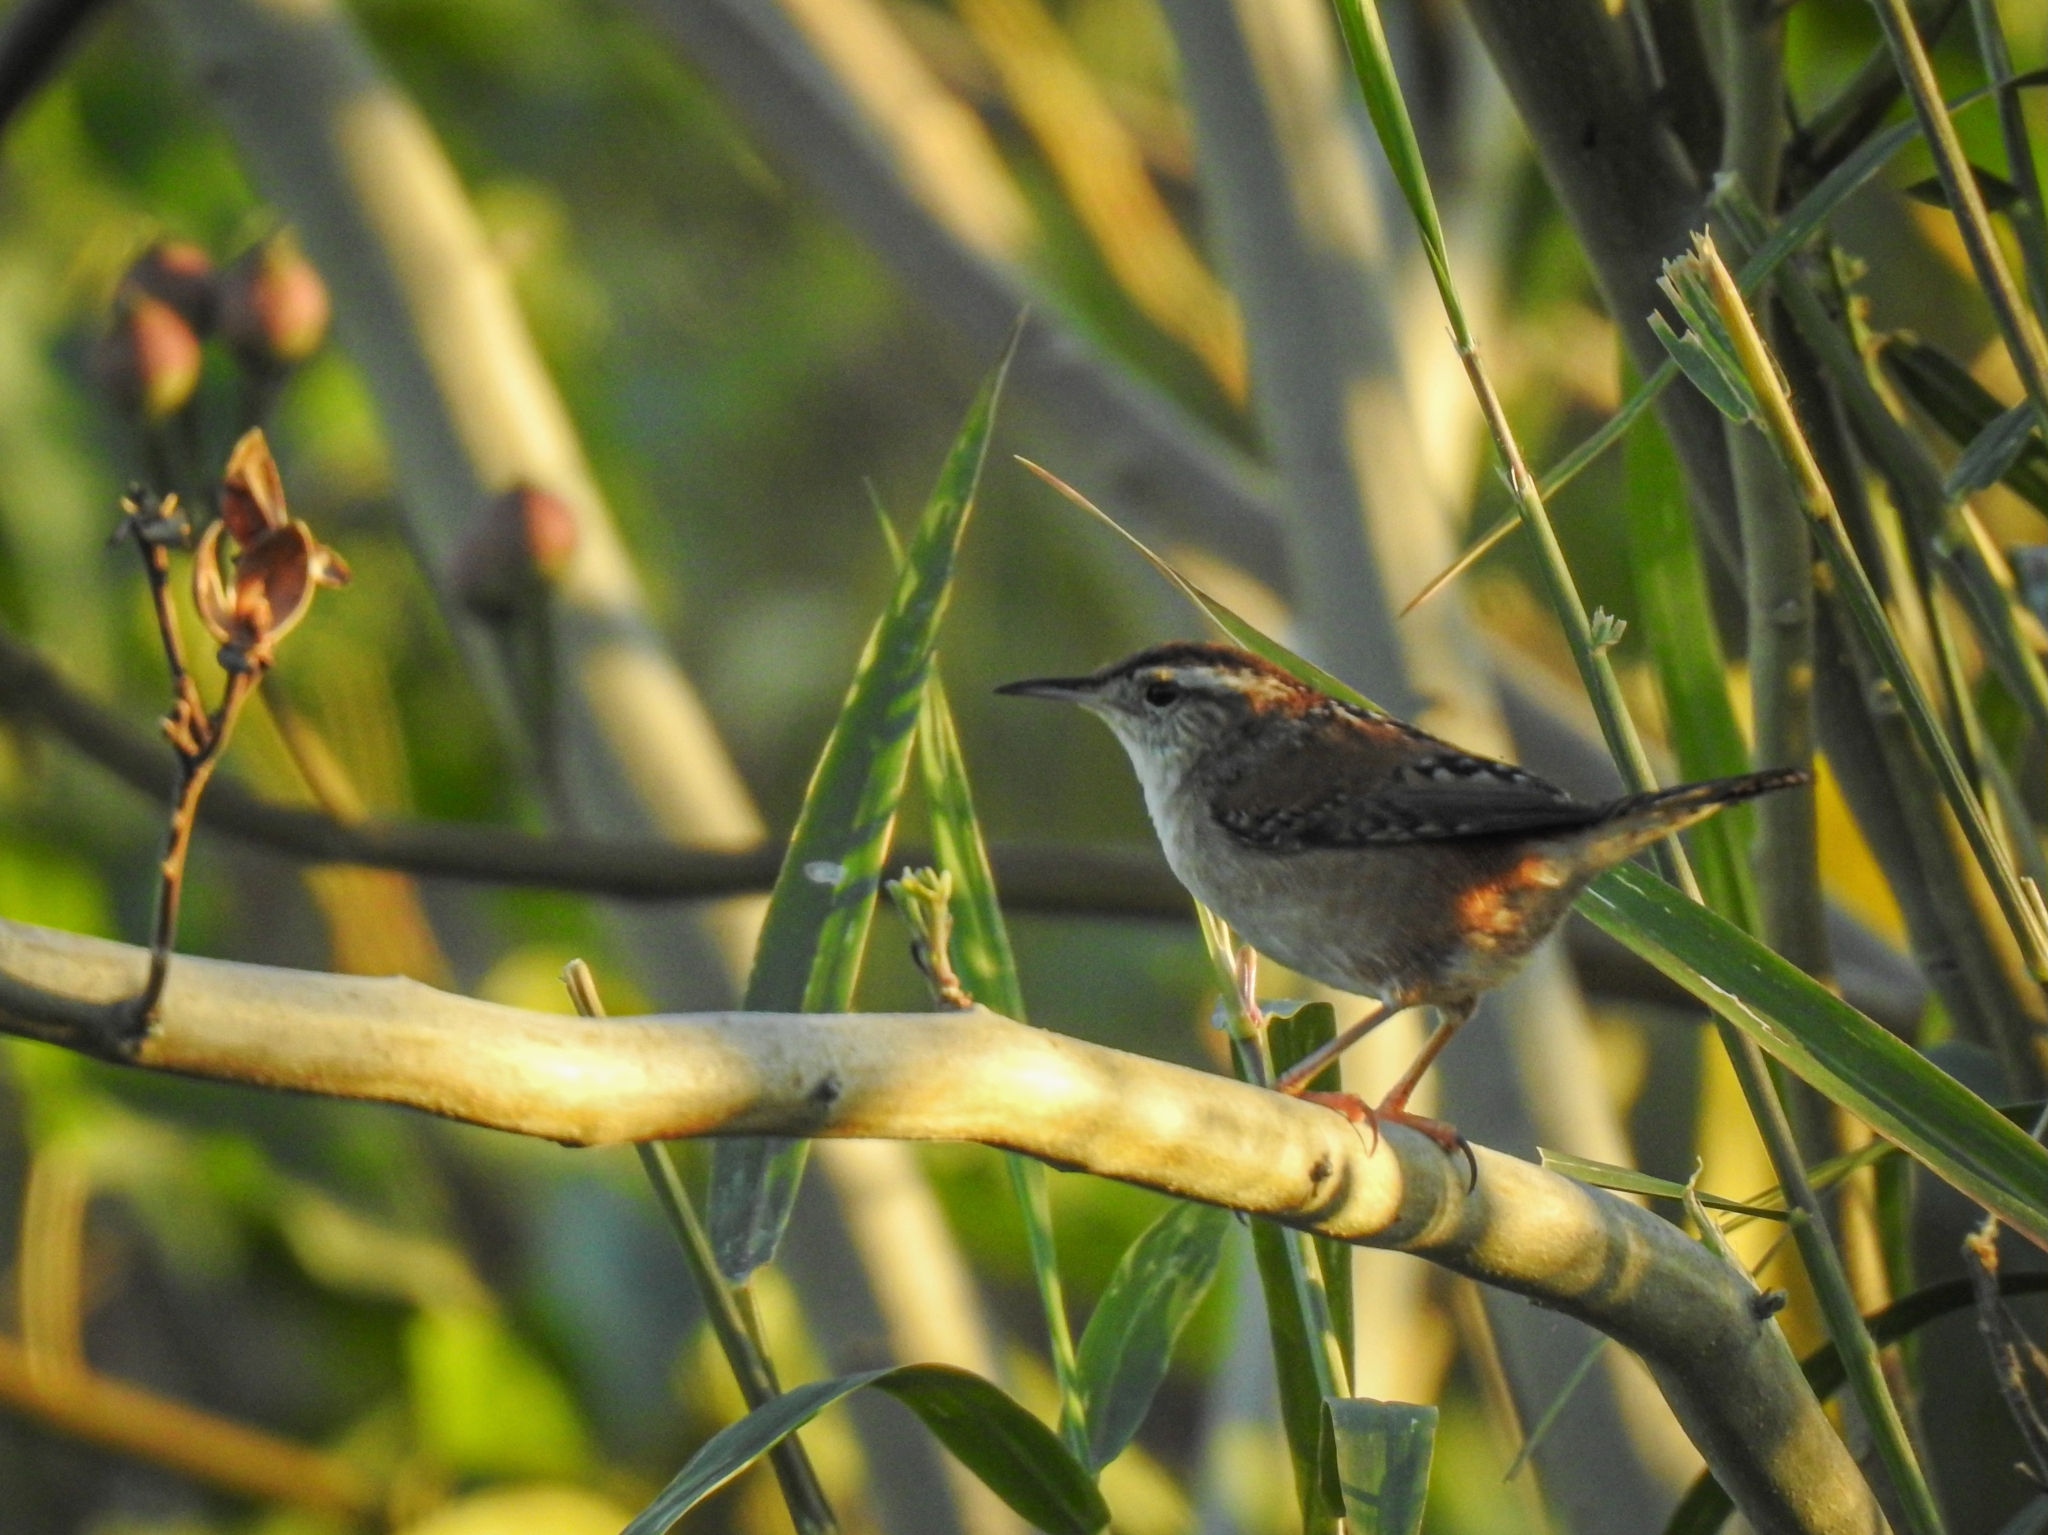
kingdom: Animalia
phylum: Chordata
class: Aves
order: Passeriformes
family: Troglodytidae
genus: Cistothorus
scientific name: Cistothorus palustris
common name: Marsh wren
